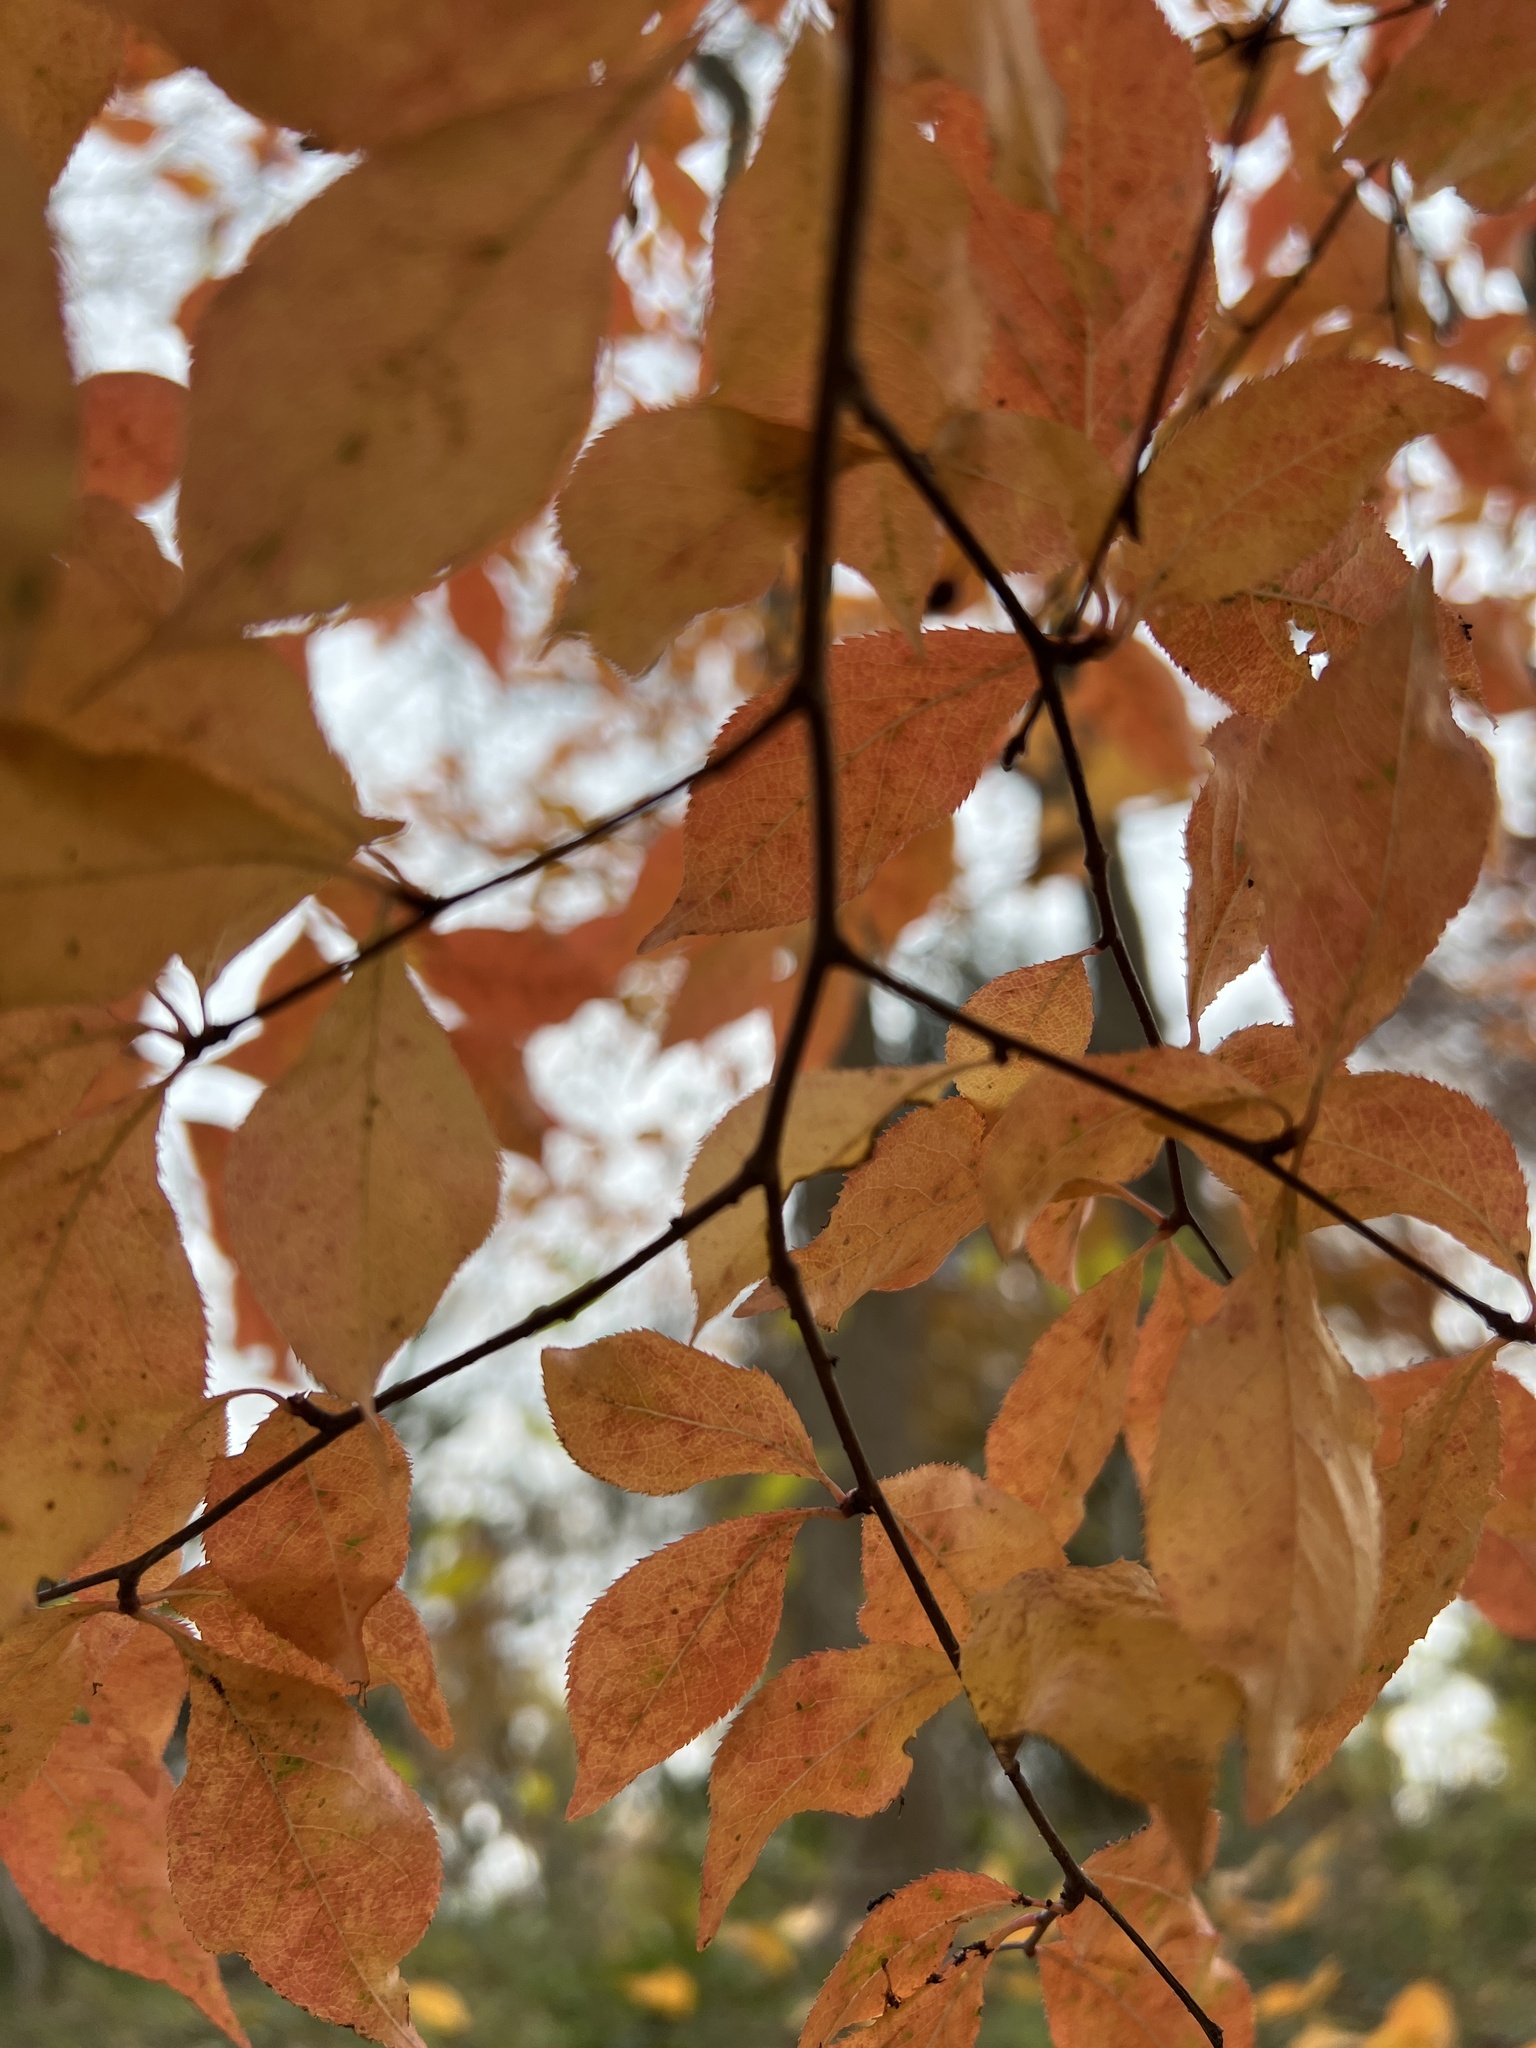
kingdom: Plantae
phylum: Tracheophyta
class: Magnoliopsida
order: Rosales
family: Rosaceae
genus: Pourthiaea
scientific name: Pourthiaea villosa
